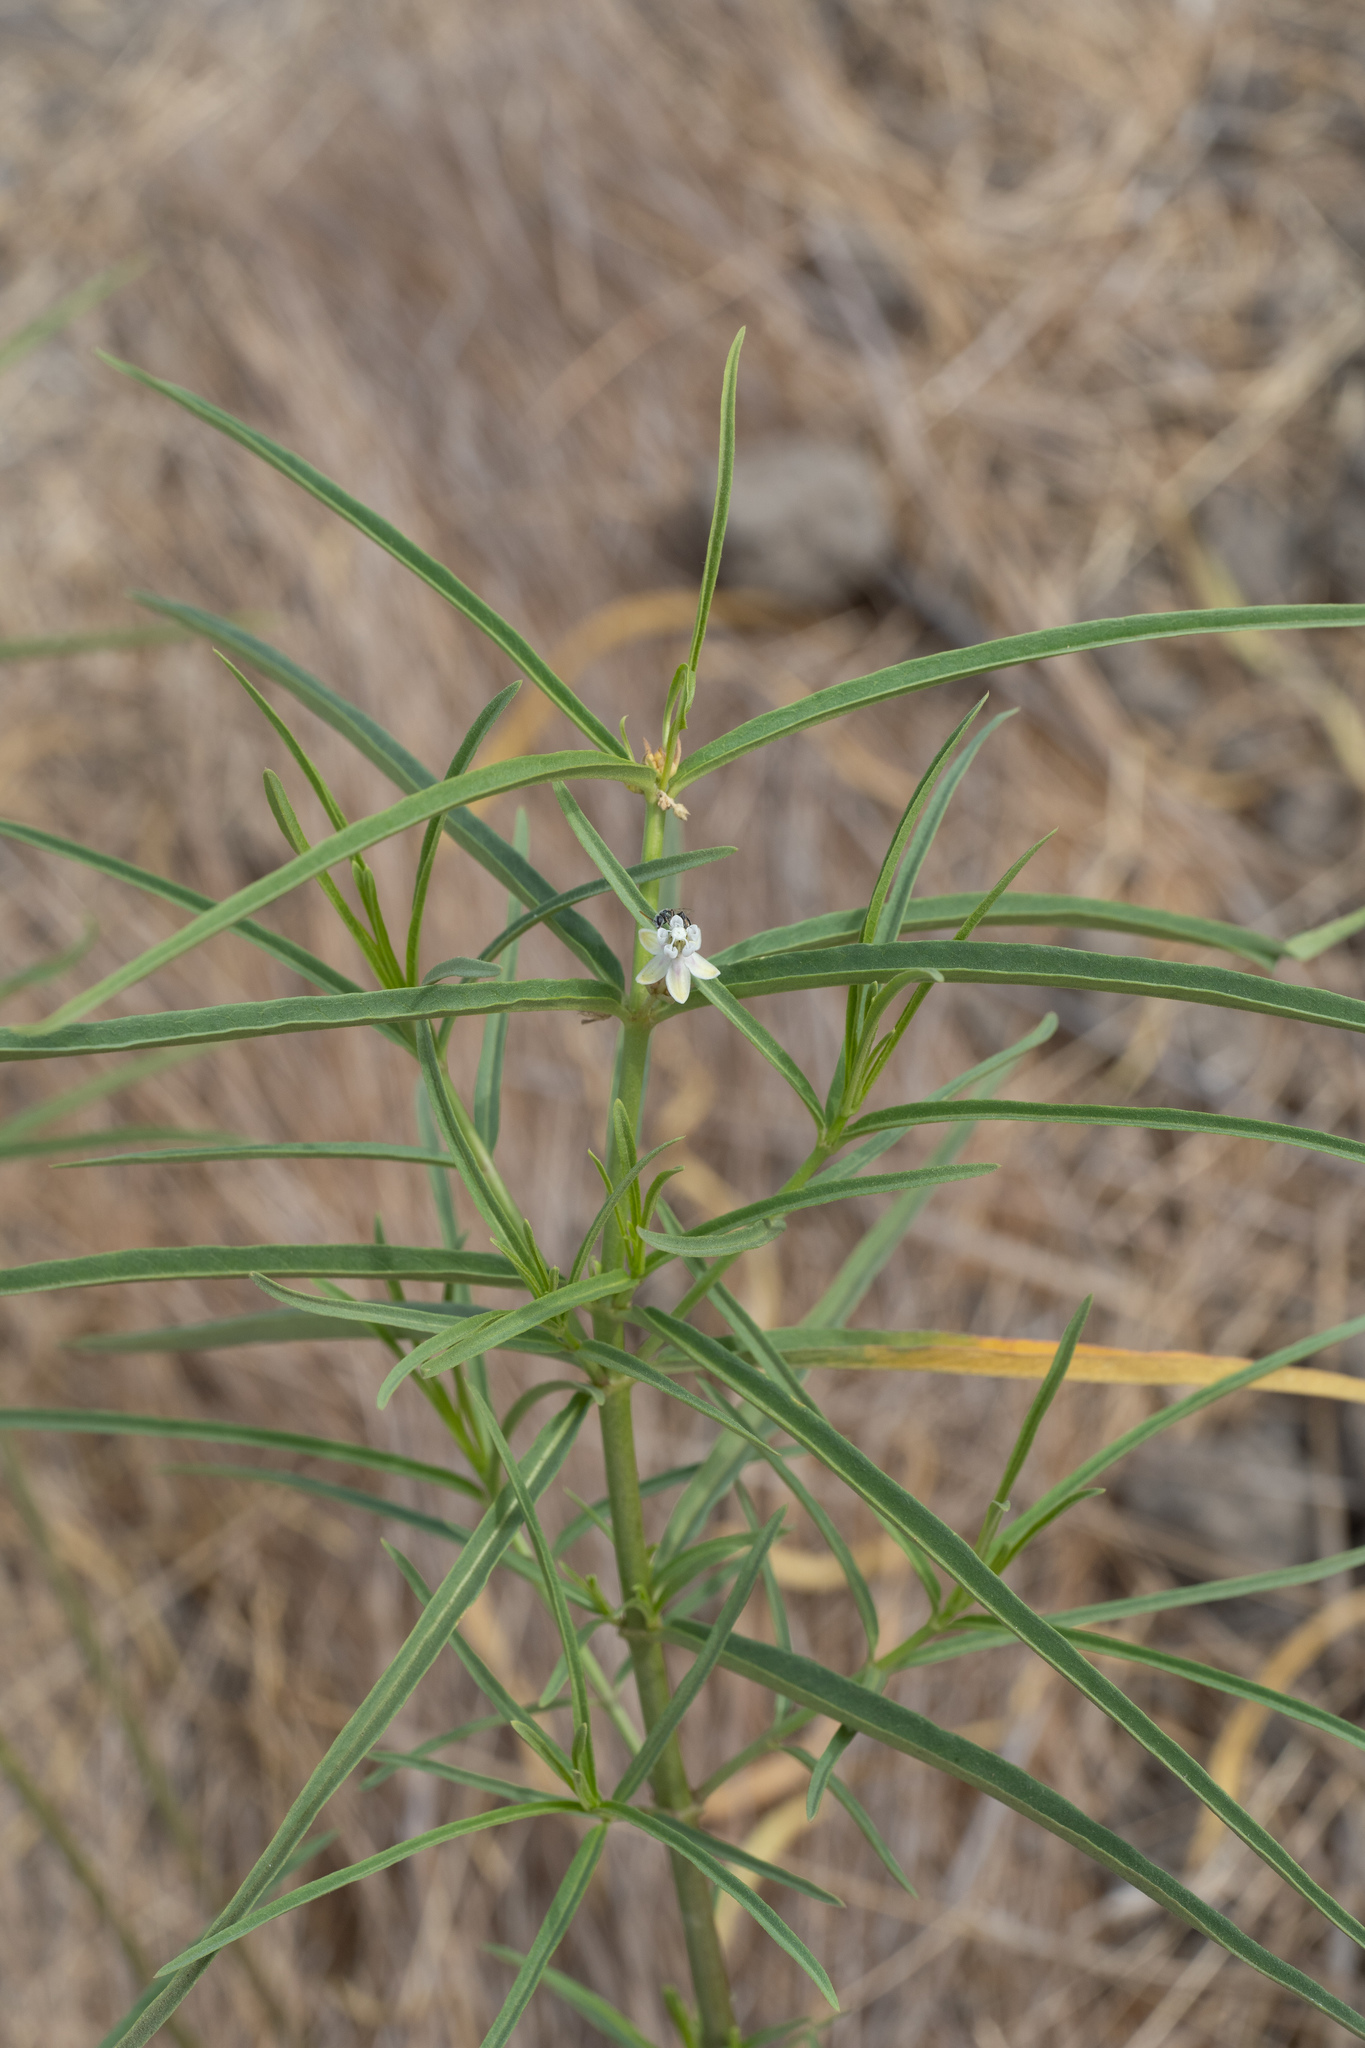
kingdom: Plantae
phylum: Tracheophyta
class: Magnoliopsida
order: Gentianales
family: Apocynaceae
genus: Asclepias
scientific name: Asclepias fascicularis
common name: Mexican milkweed
